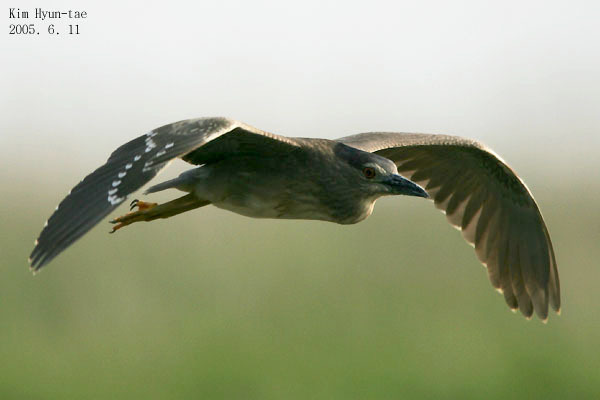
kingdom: Animalia
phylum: Chordata
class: Aves
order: Pelecaniformes
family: Ardeidae
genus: Nycticorax
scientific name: Nycticorax nycticorax
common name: Black-crowned night heron
